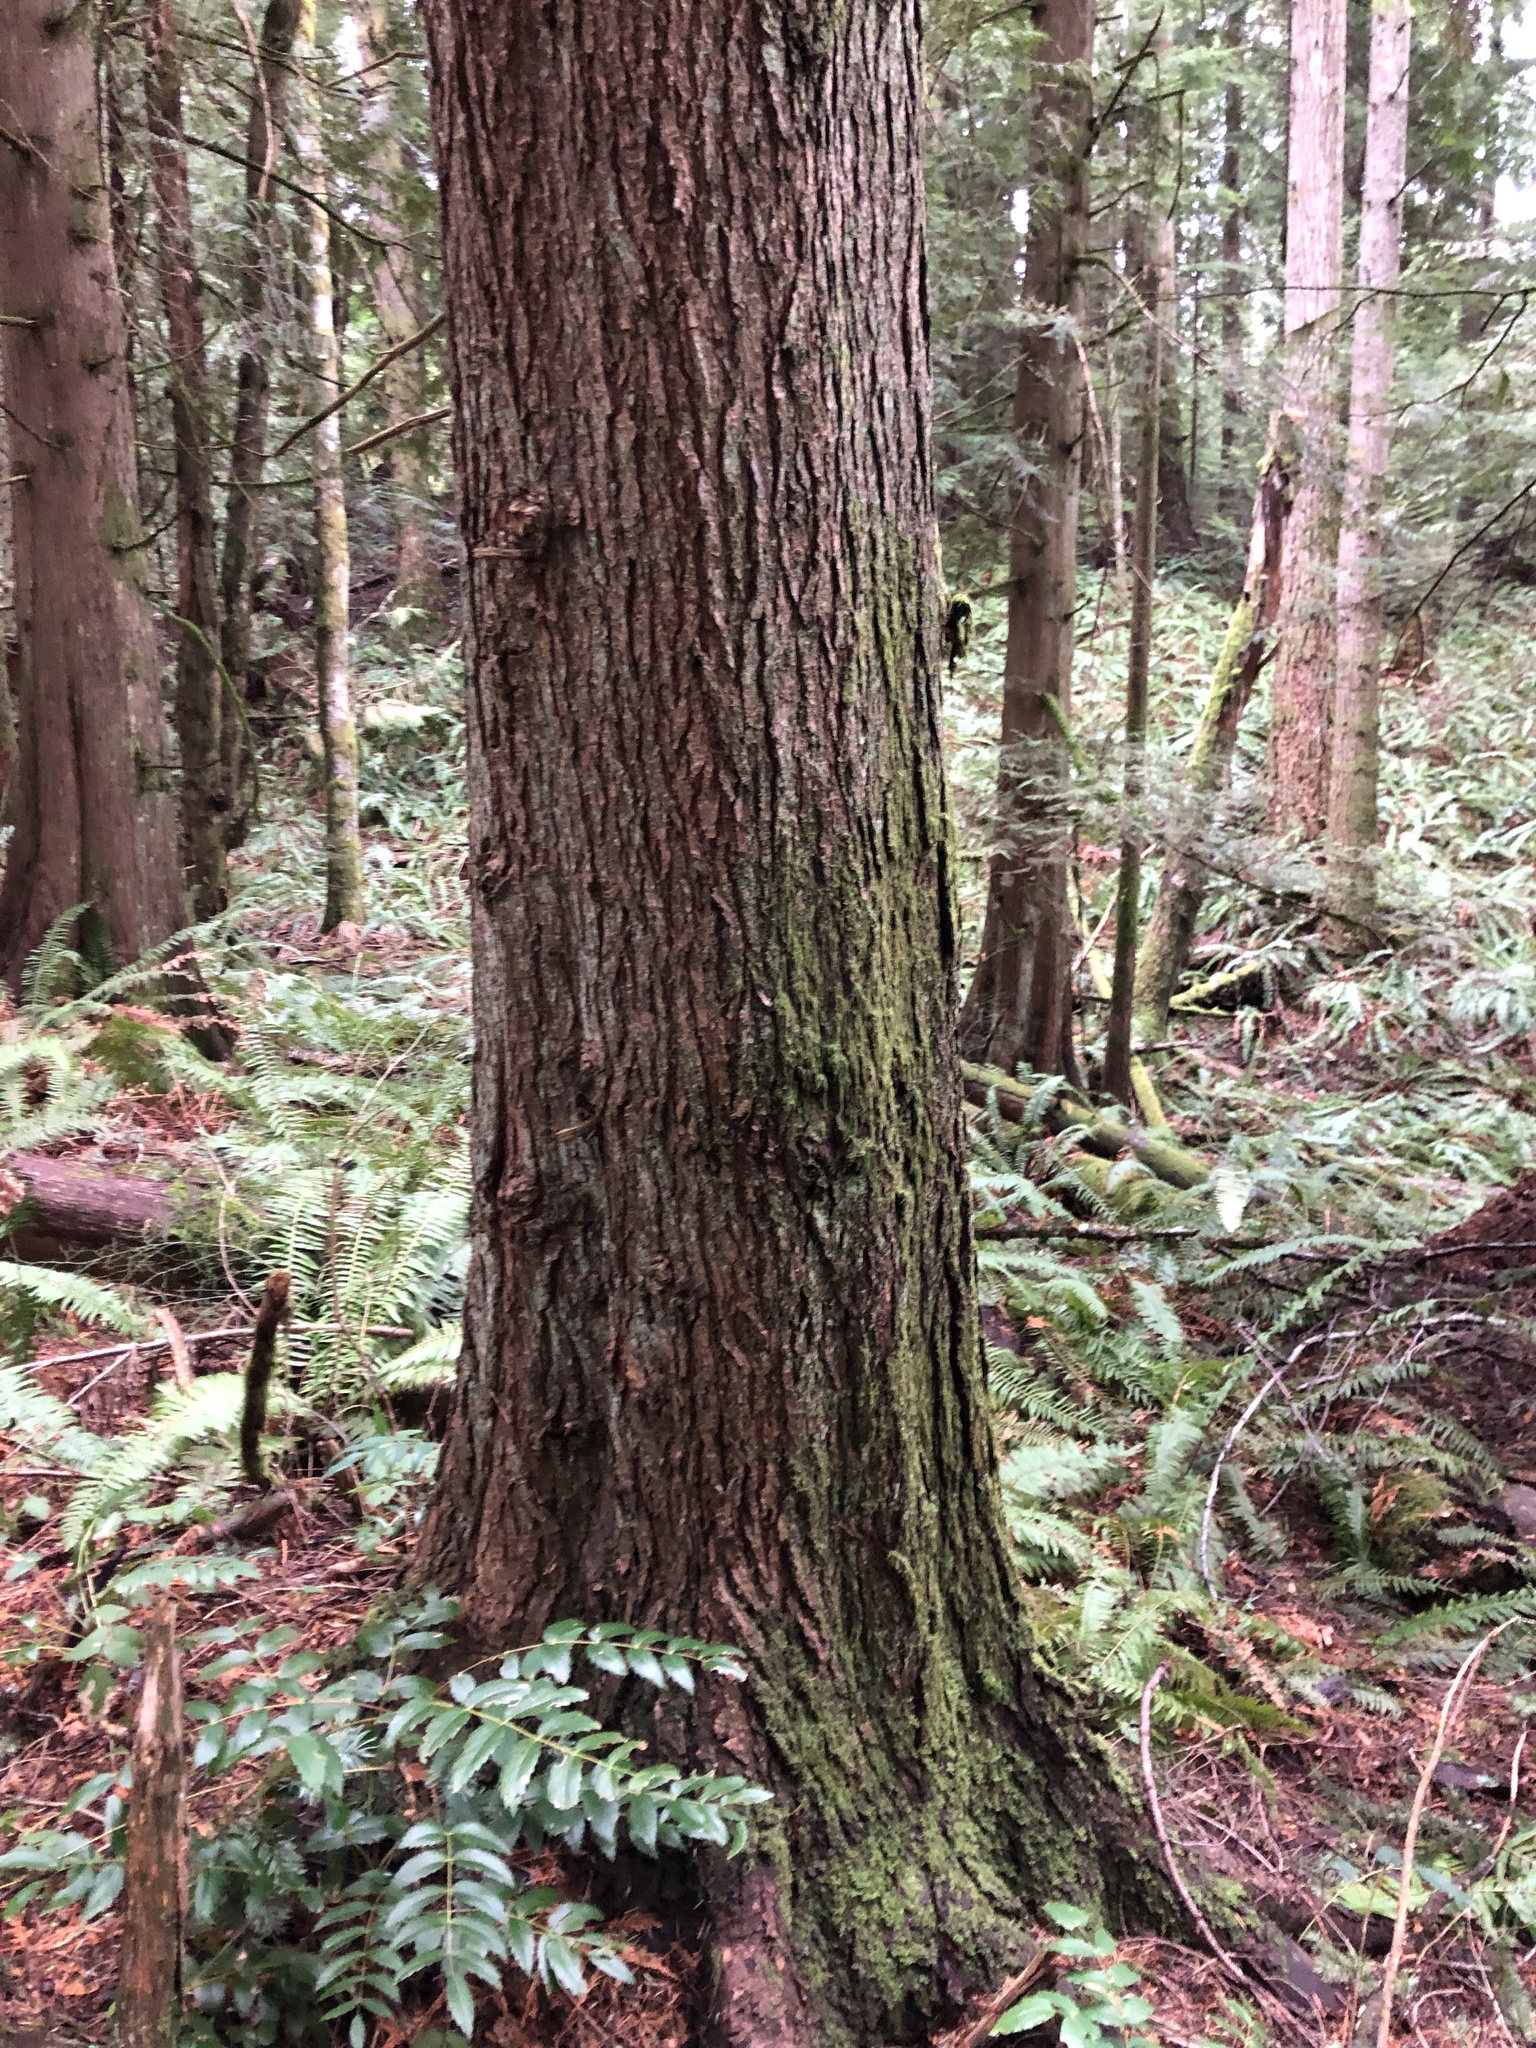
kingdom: Plantae
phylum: Tracheophyta
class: Pinopsida
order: Pinales
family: Pinaceae
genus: Tsuga
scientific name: Tsuga heterophylla
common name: Western hemlock
